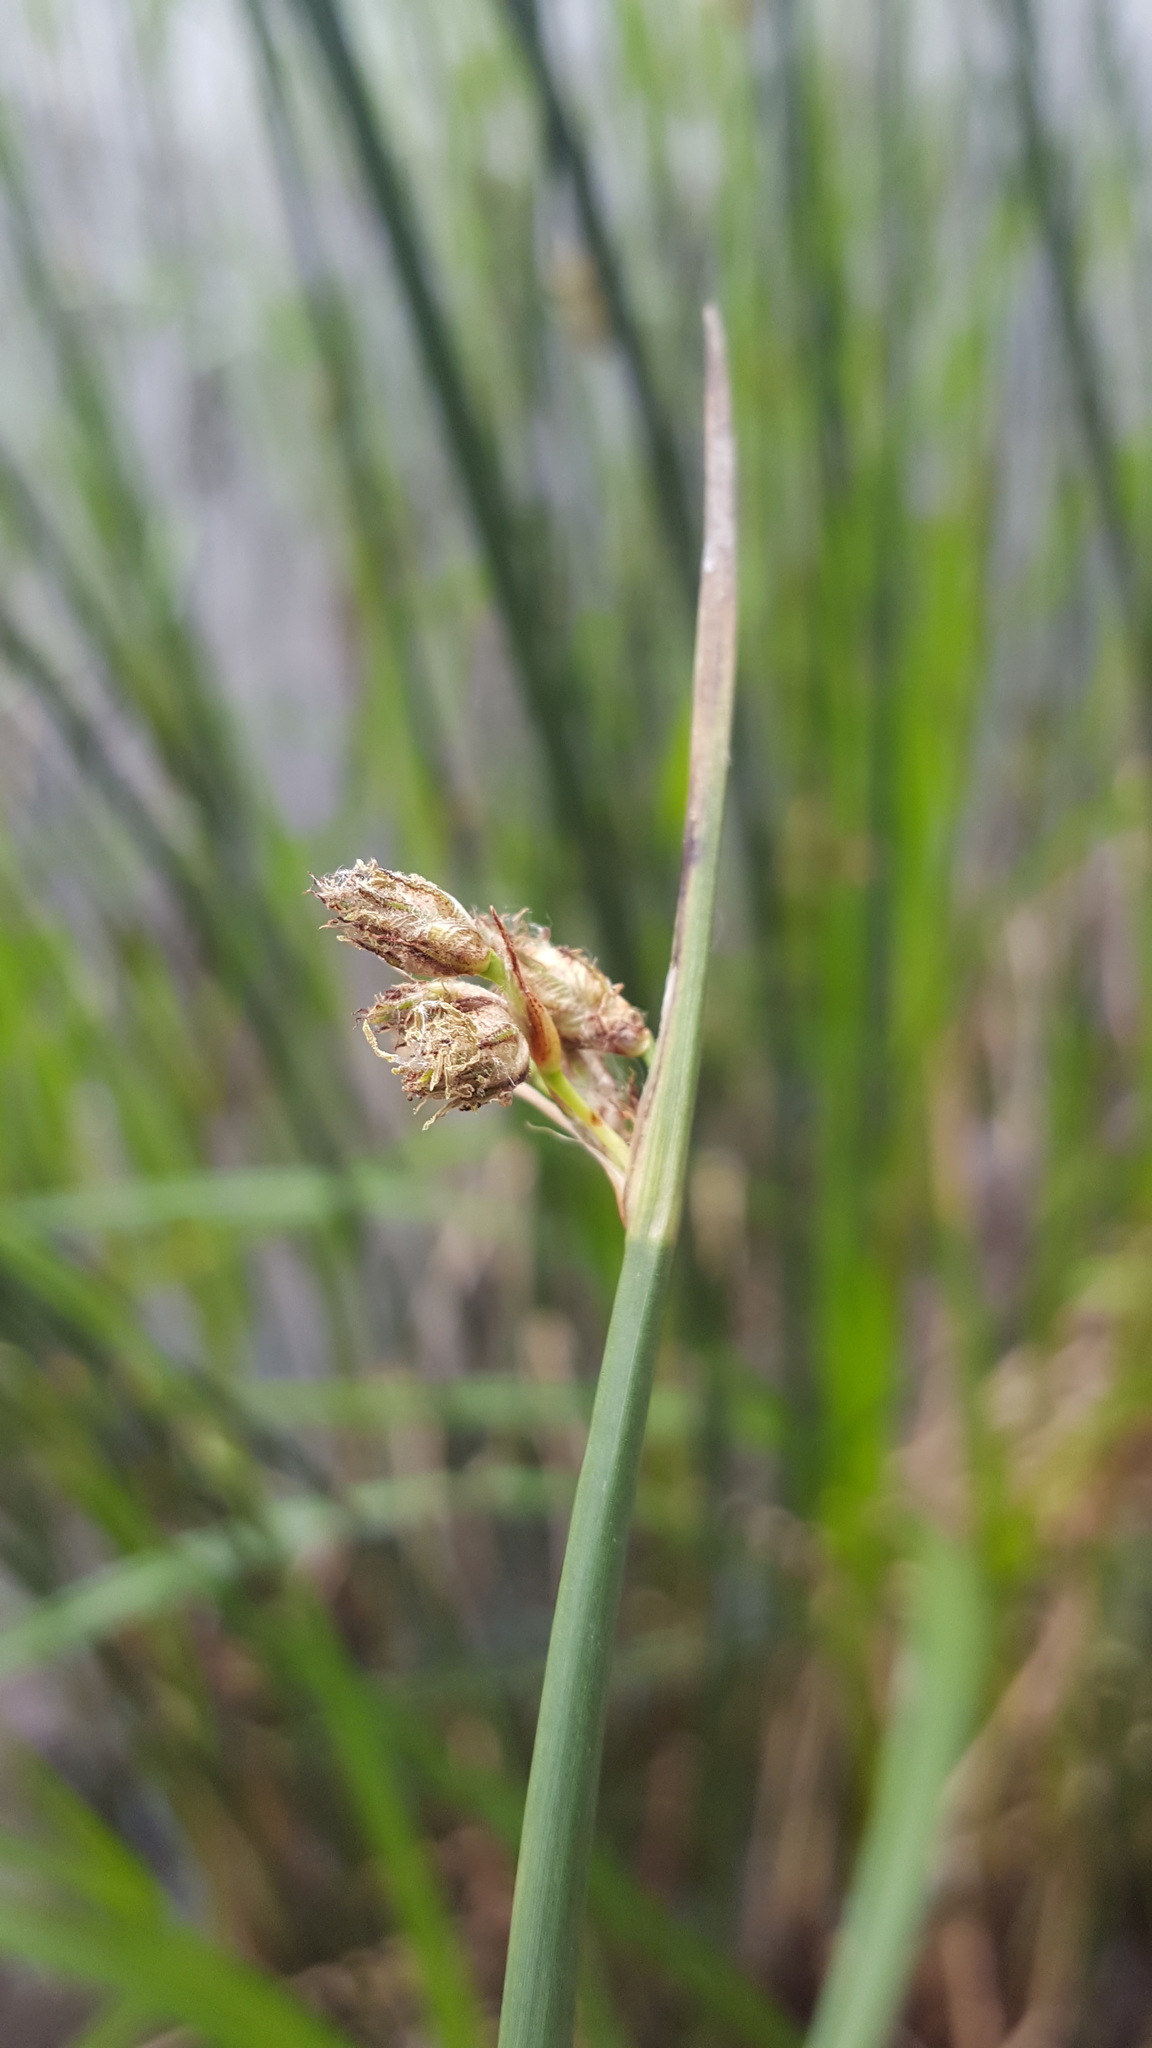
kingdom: Plantae
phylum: Tracheophyta
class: Liliopsida
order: Poales
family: Cyperaceae
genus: Schoenoplectus
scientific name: Schoenoplectus tabernaemontani
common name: Grey club-rush
